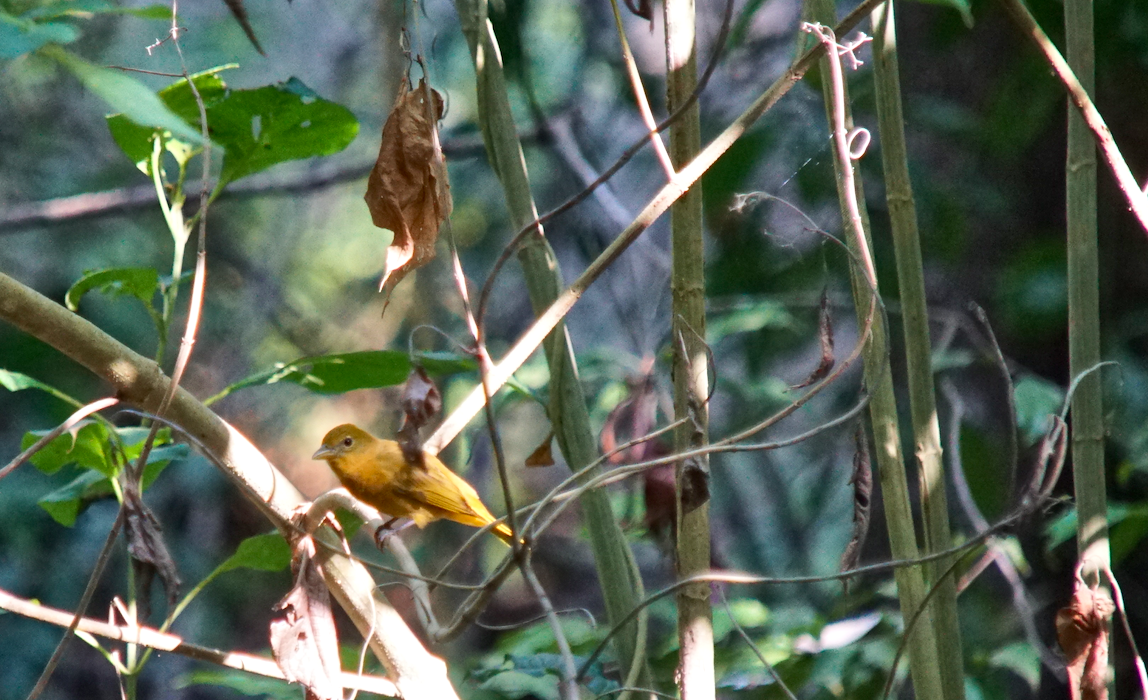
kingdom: Animalia
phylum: Chordata
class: Aves
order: Passeriformes
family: Cardinalidae
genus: Piranga
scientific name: Piranga rubra
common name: Summer tanager
